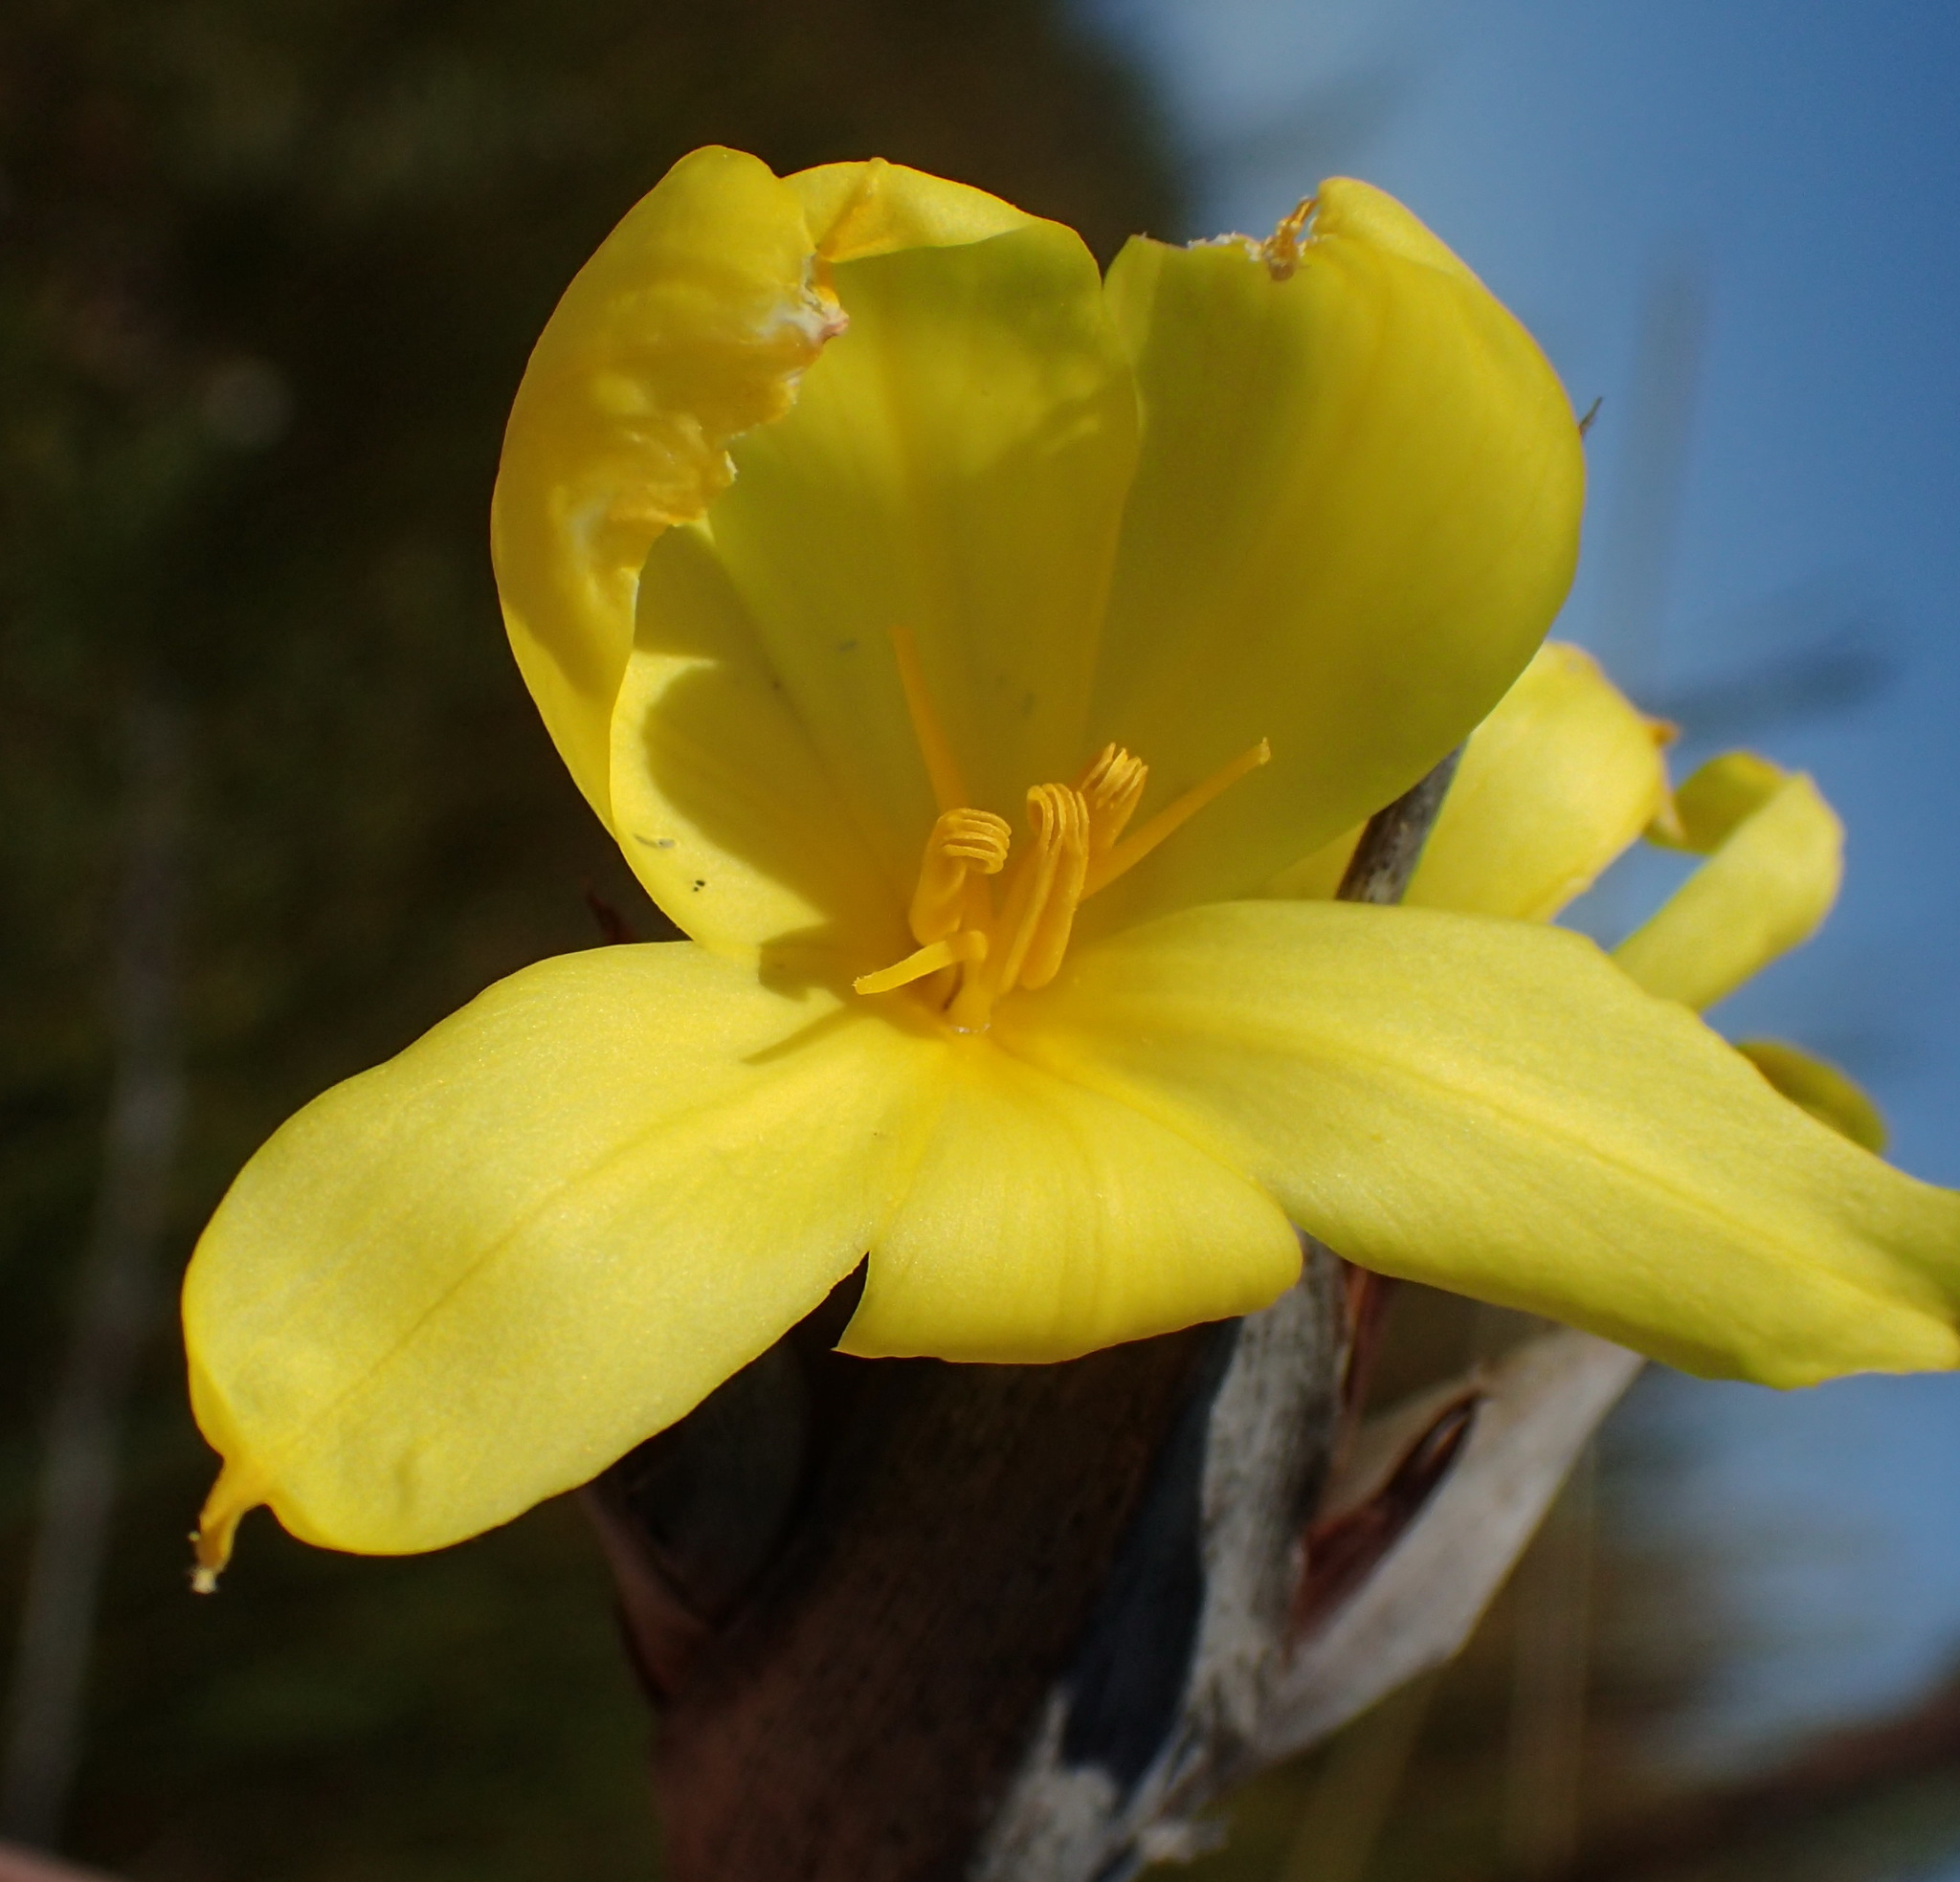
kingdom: Plantae
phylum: Tracheophyta
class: Liliopsida
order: Asparagales
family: Iridaceae
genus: Bobartia
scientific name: Bobartia macrospatha
